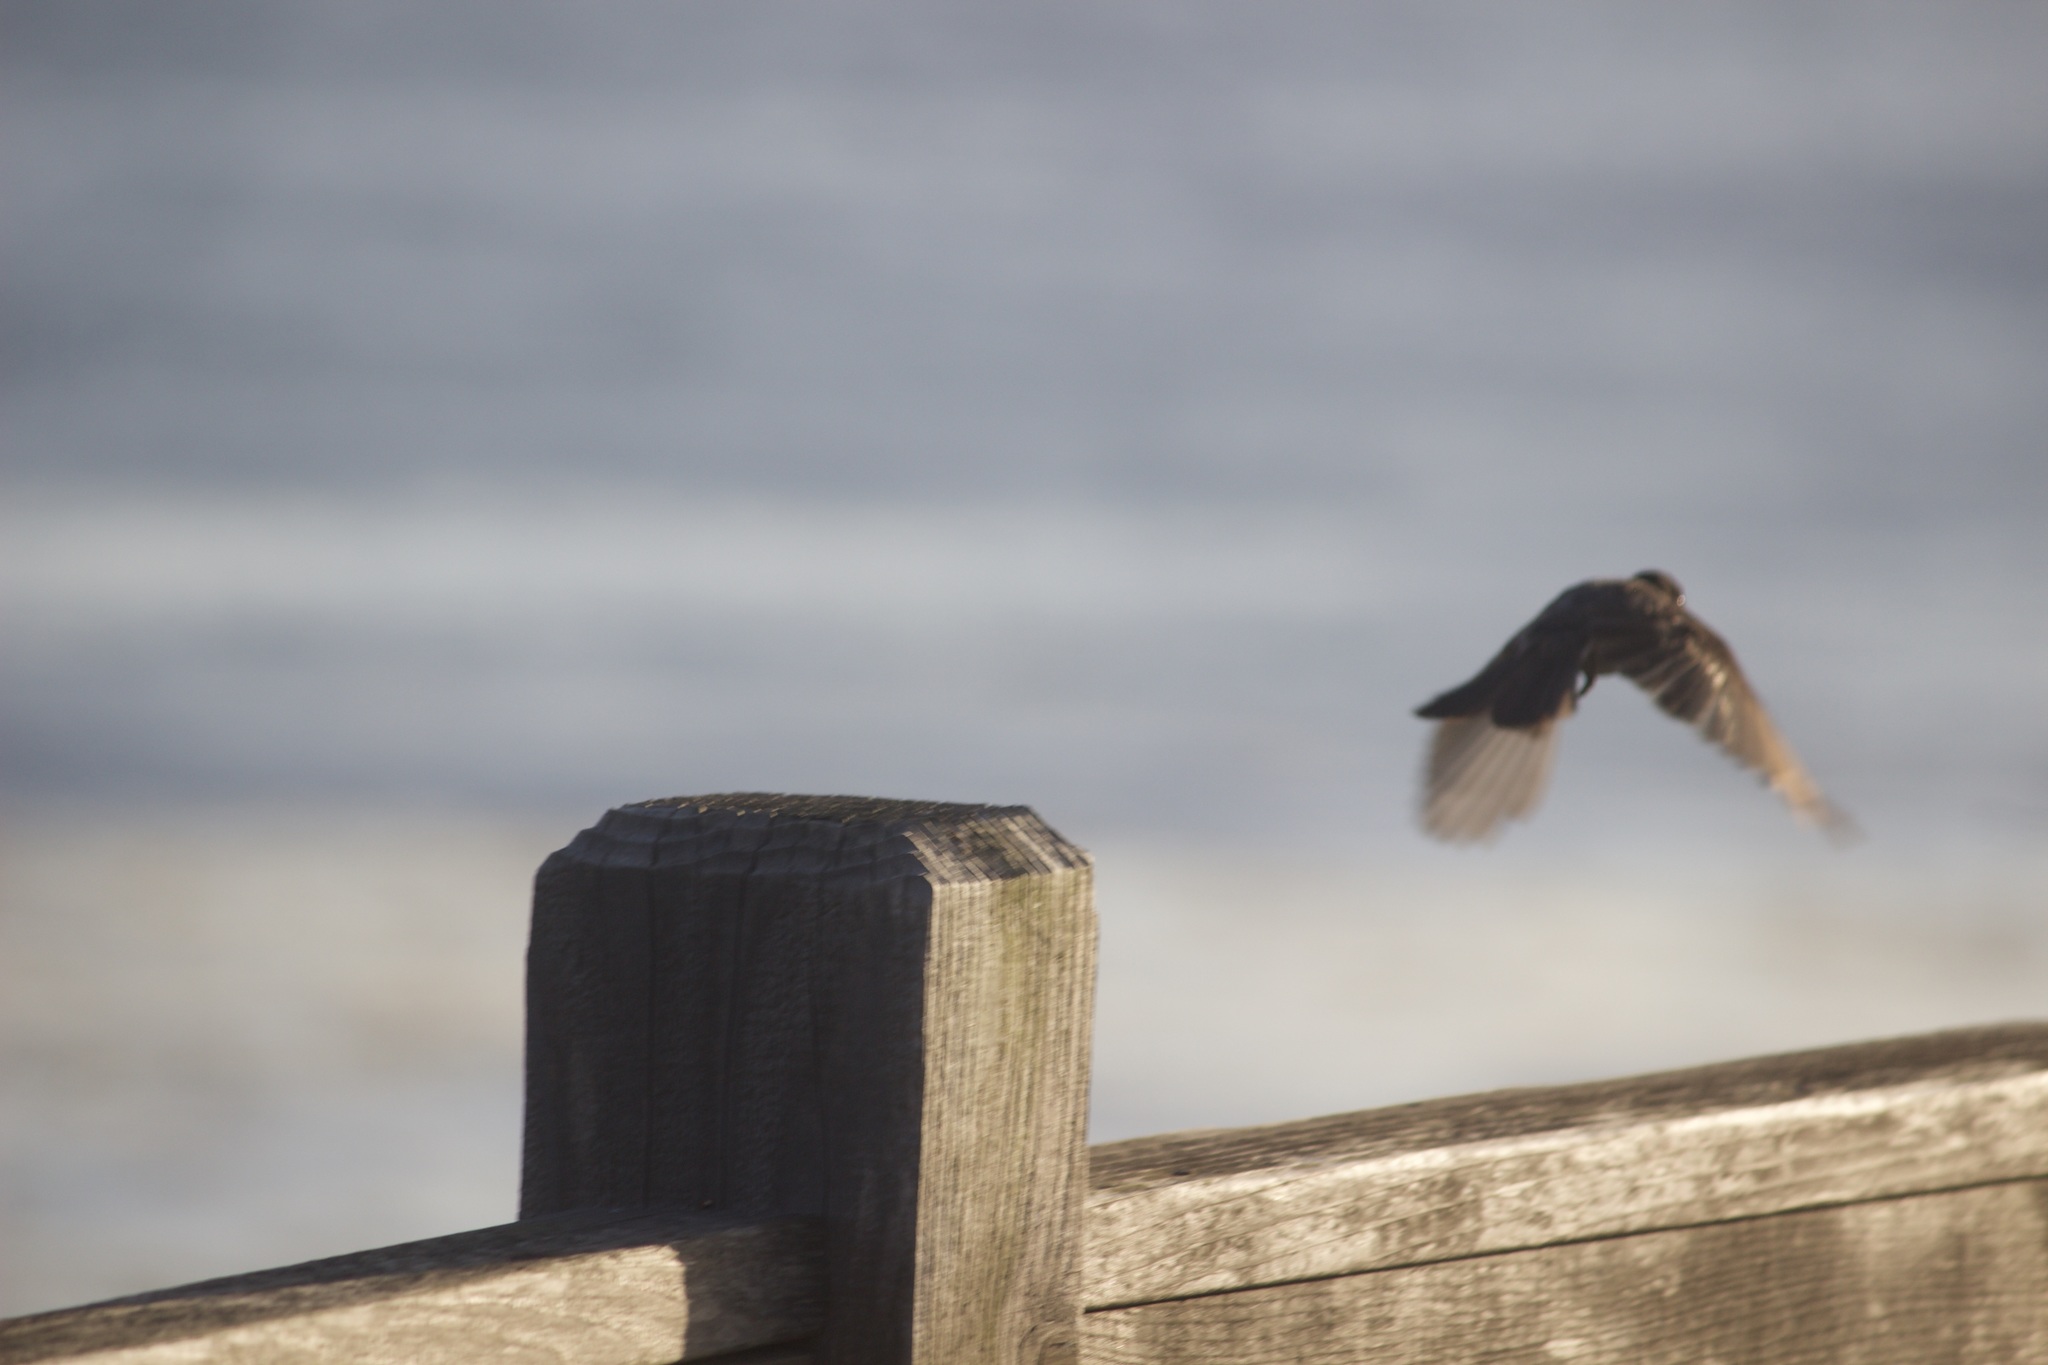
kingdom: Animalia
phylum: Chordata
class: Aves
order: Passeriformes
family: Tyrannidae
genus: Sayornis
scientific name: Sayornis nigricans
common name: Black phoebe
